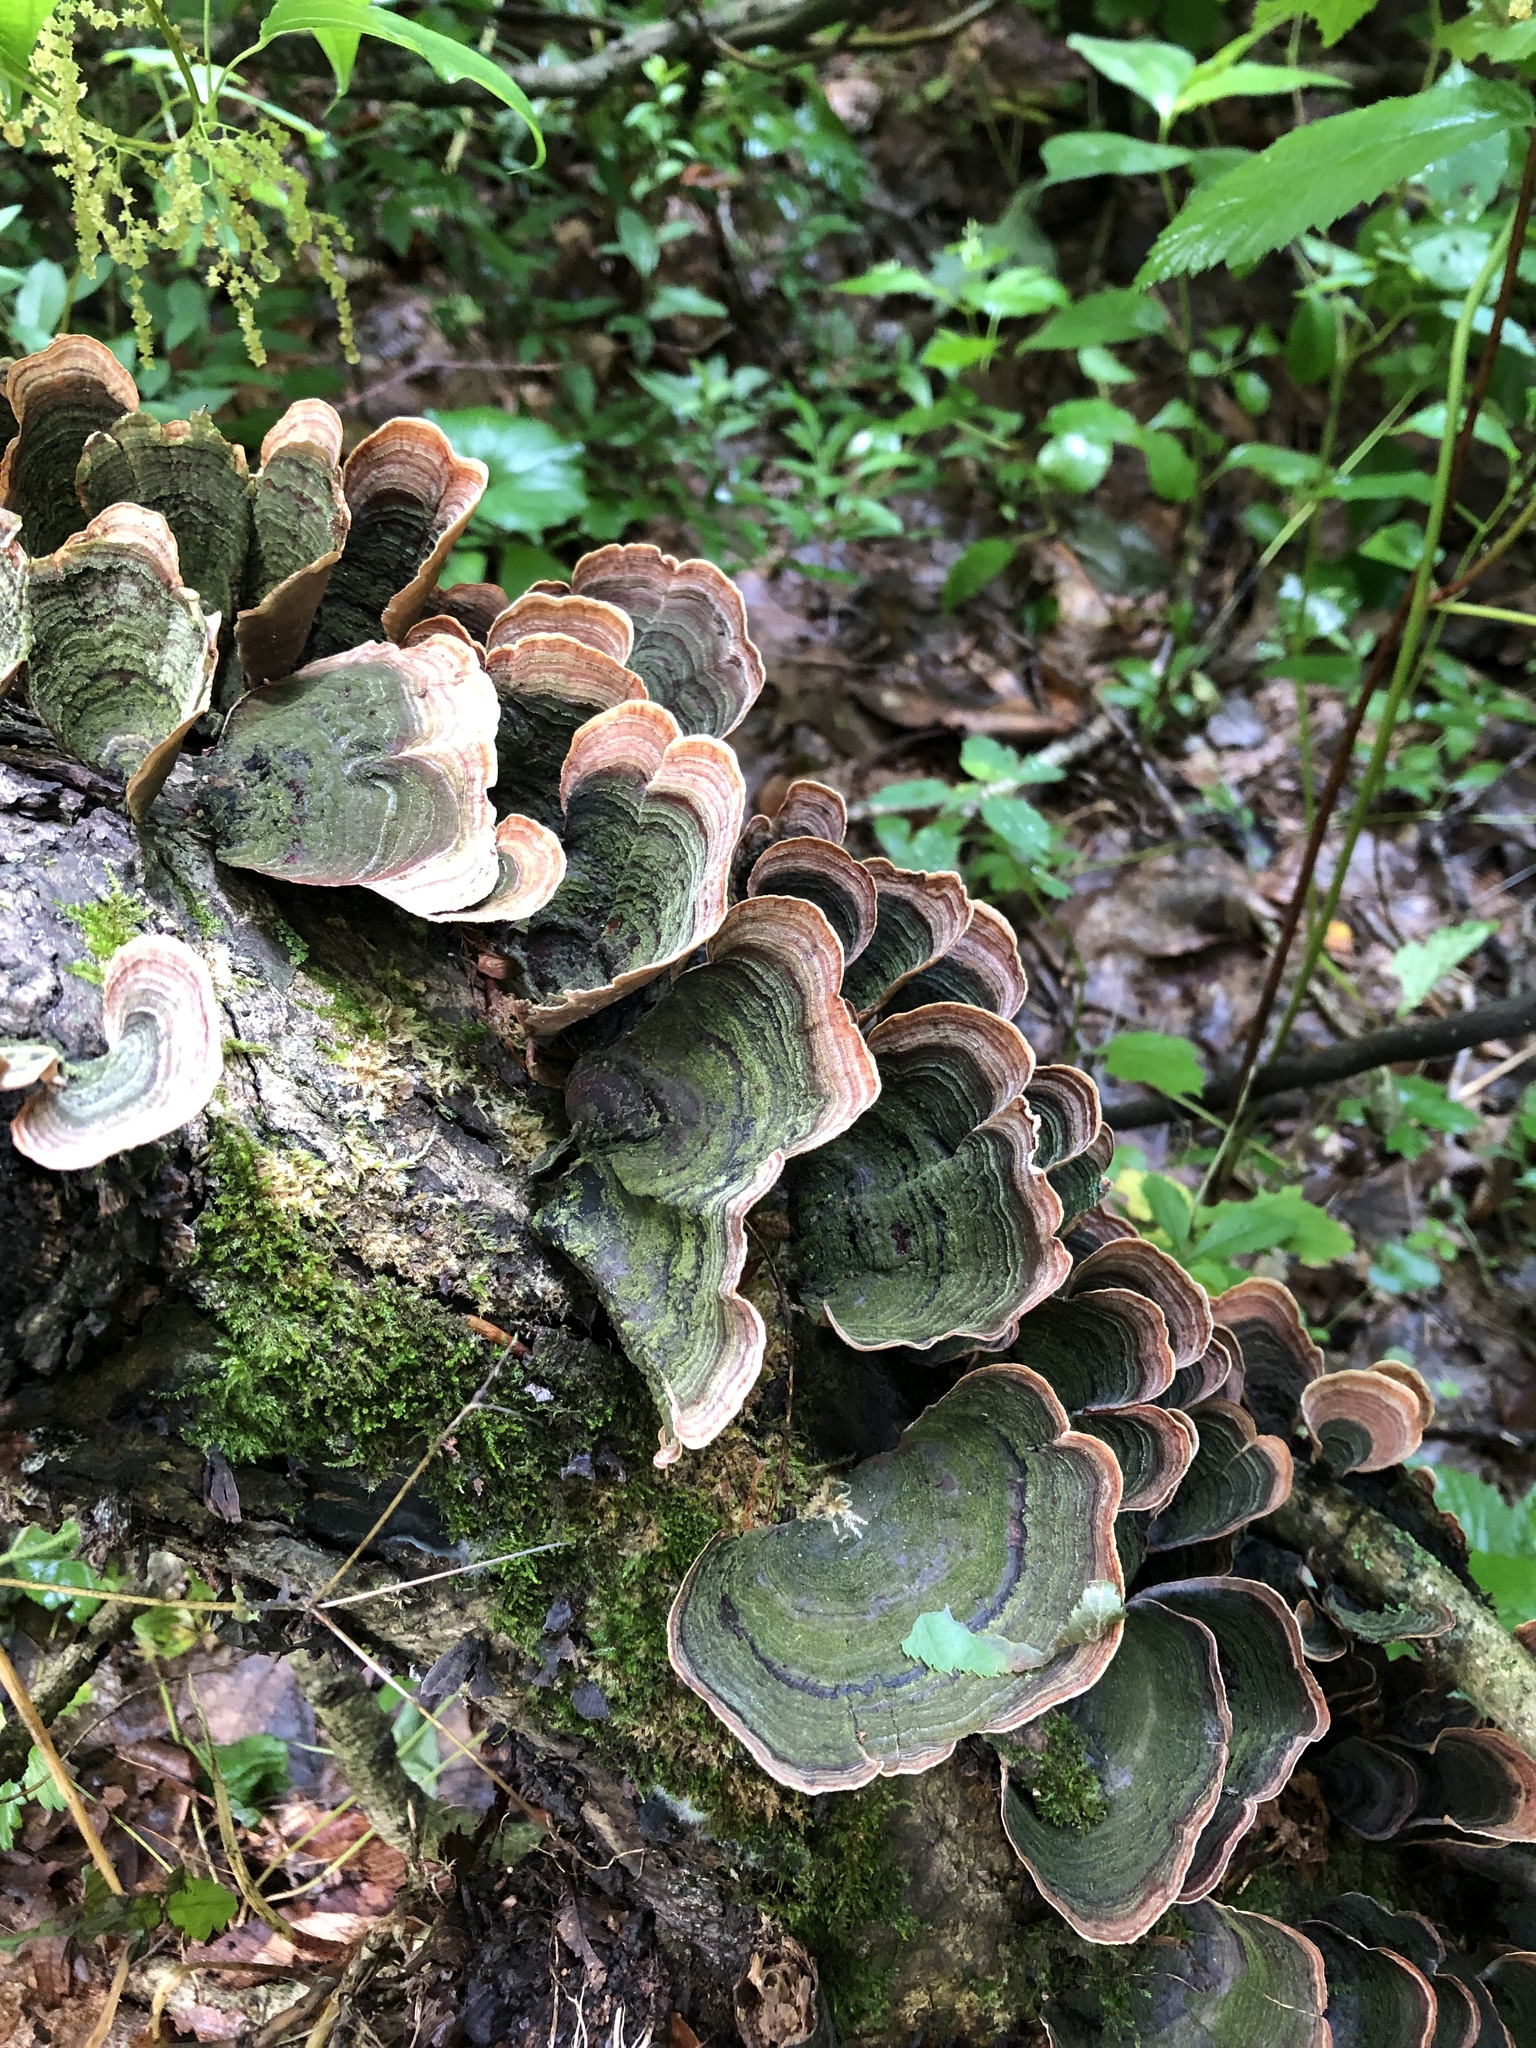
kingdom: Fungi
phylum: Basidiomycota
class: Agaricomycetes
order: Russulales
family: Stereaceae
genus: Stereum
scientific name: Stereum ostrea
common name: False turkeytail
